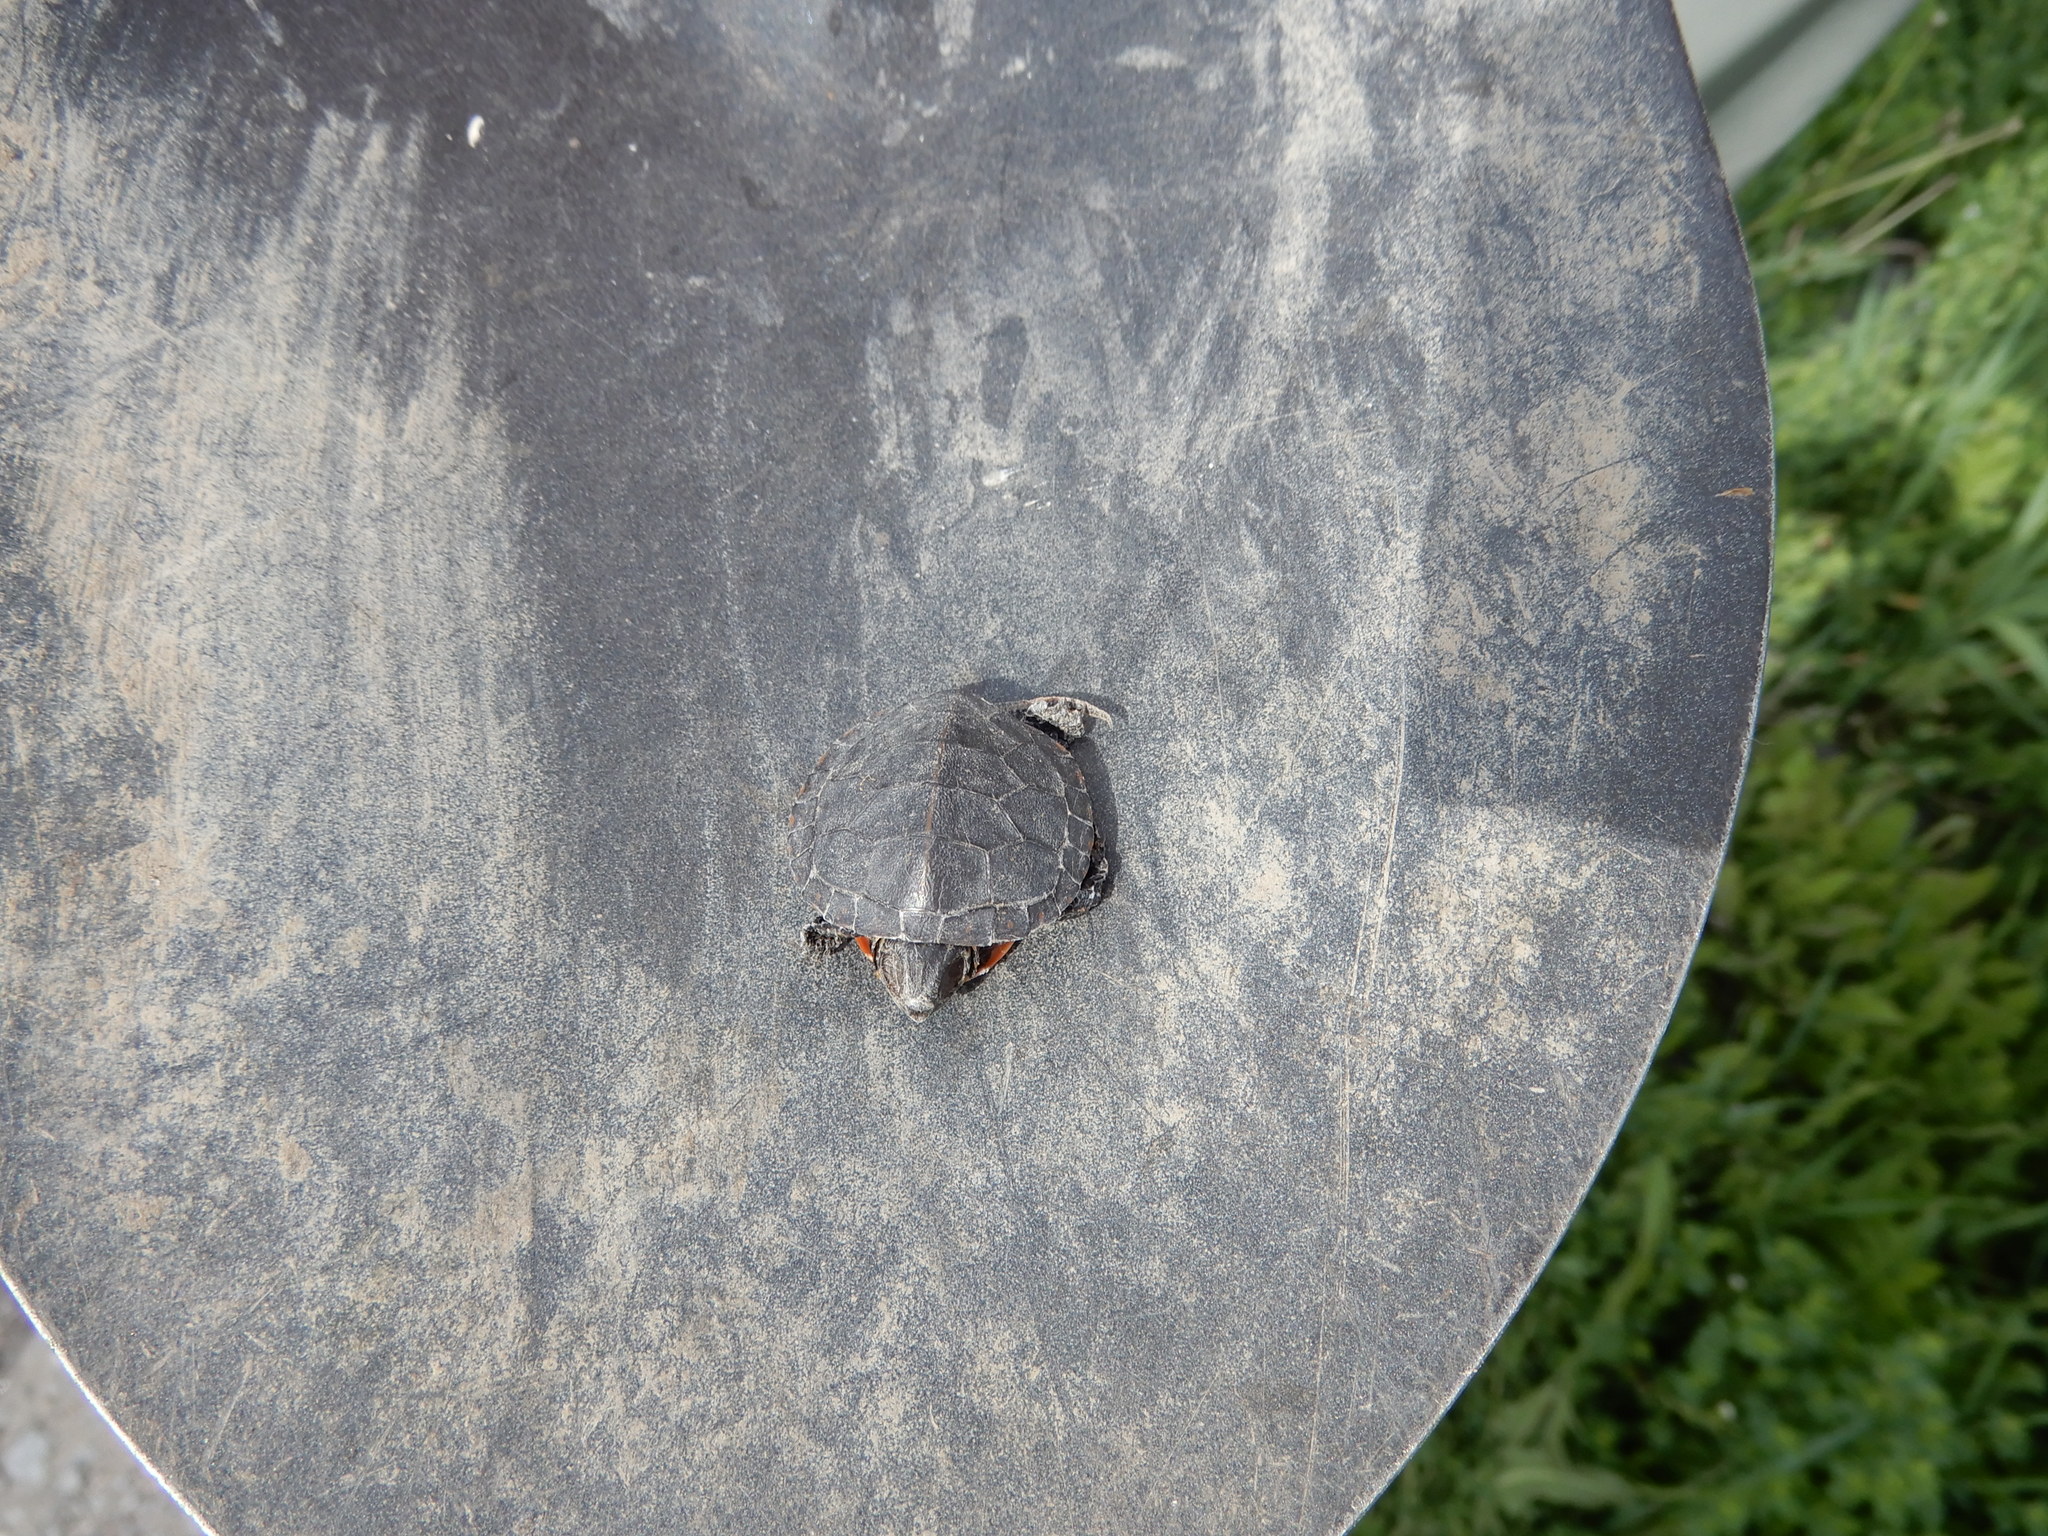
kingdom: Animalia
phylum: Chordata
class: Testudines
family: Emydidae
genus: Chrysemys
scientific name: Chrysemys picta
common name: Painted turtle
